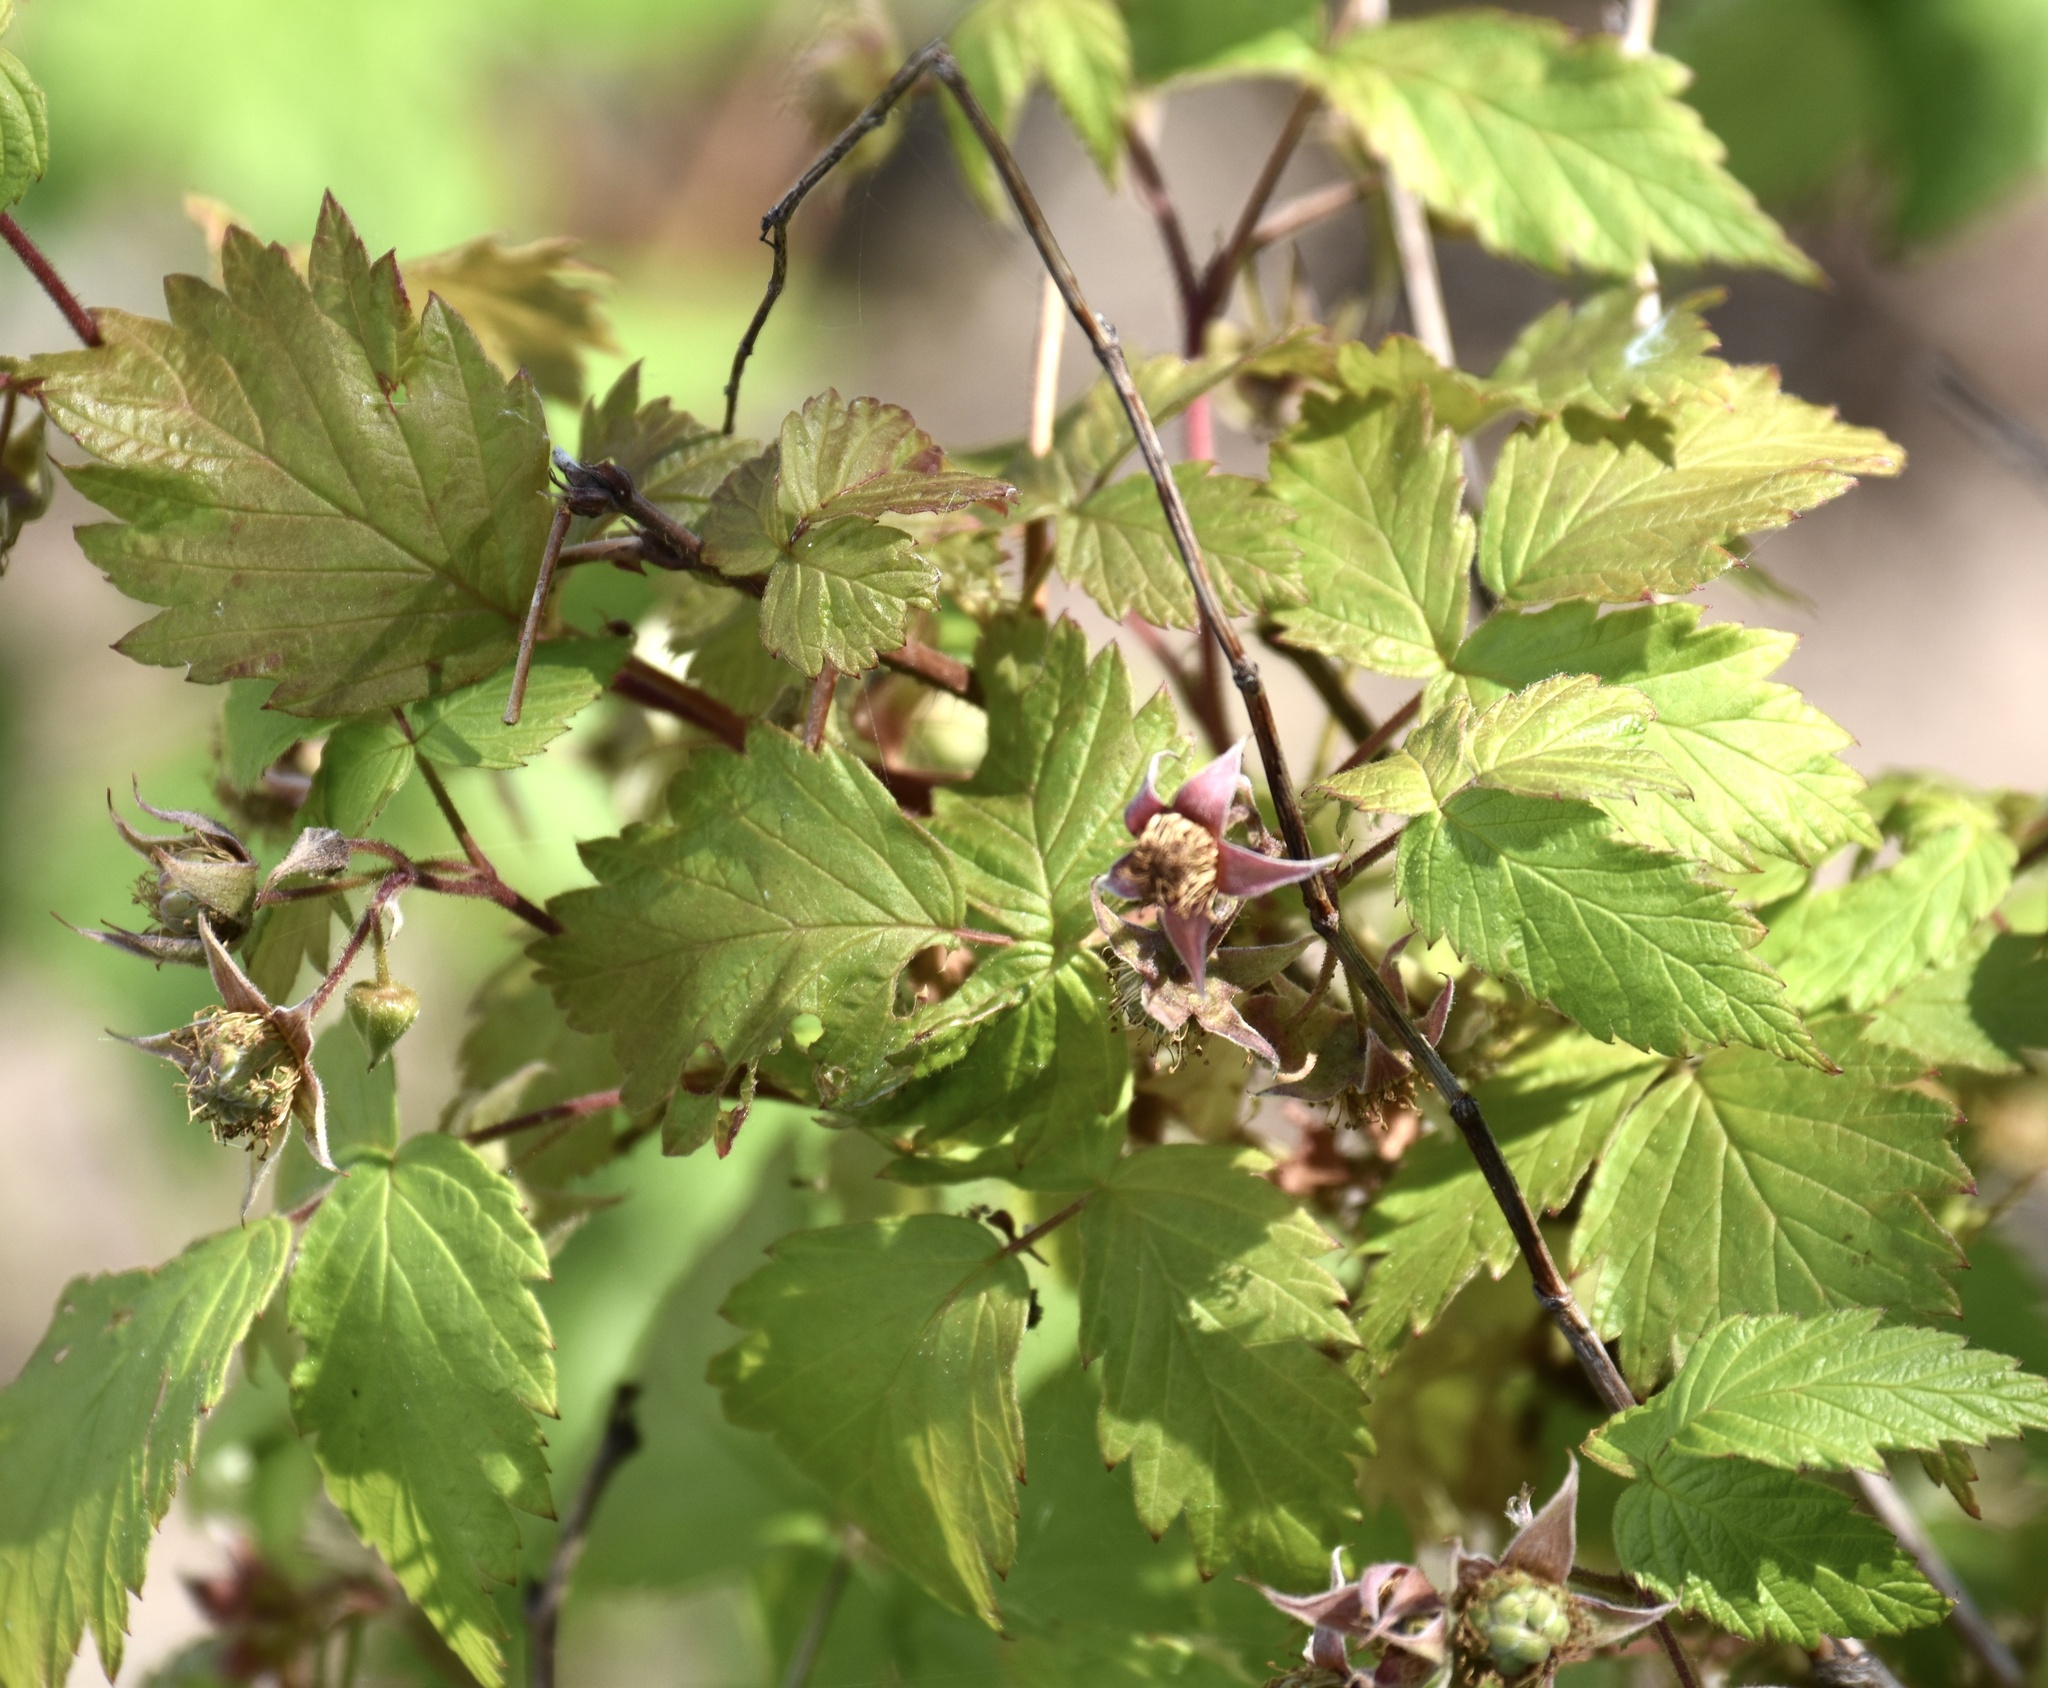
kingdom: Plantae
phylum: Tracheophyta
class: Magnoliopsida
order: Rosales
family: Rosaceae
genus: Rubus
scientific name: Rubus idaeus
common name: Raspberry
